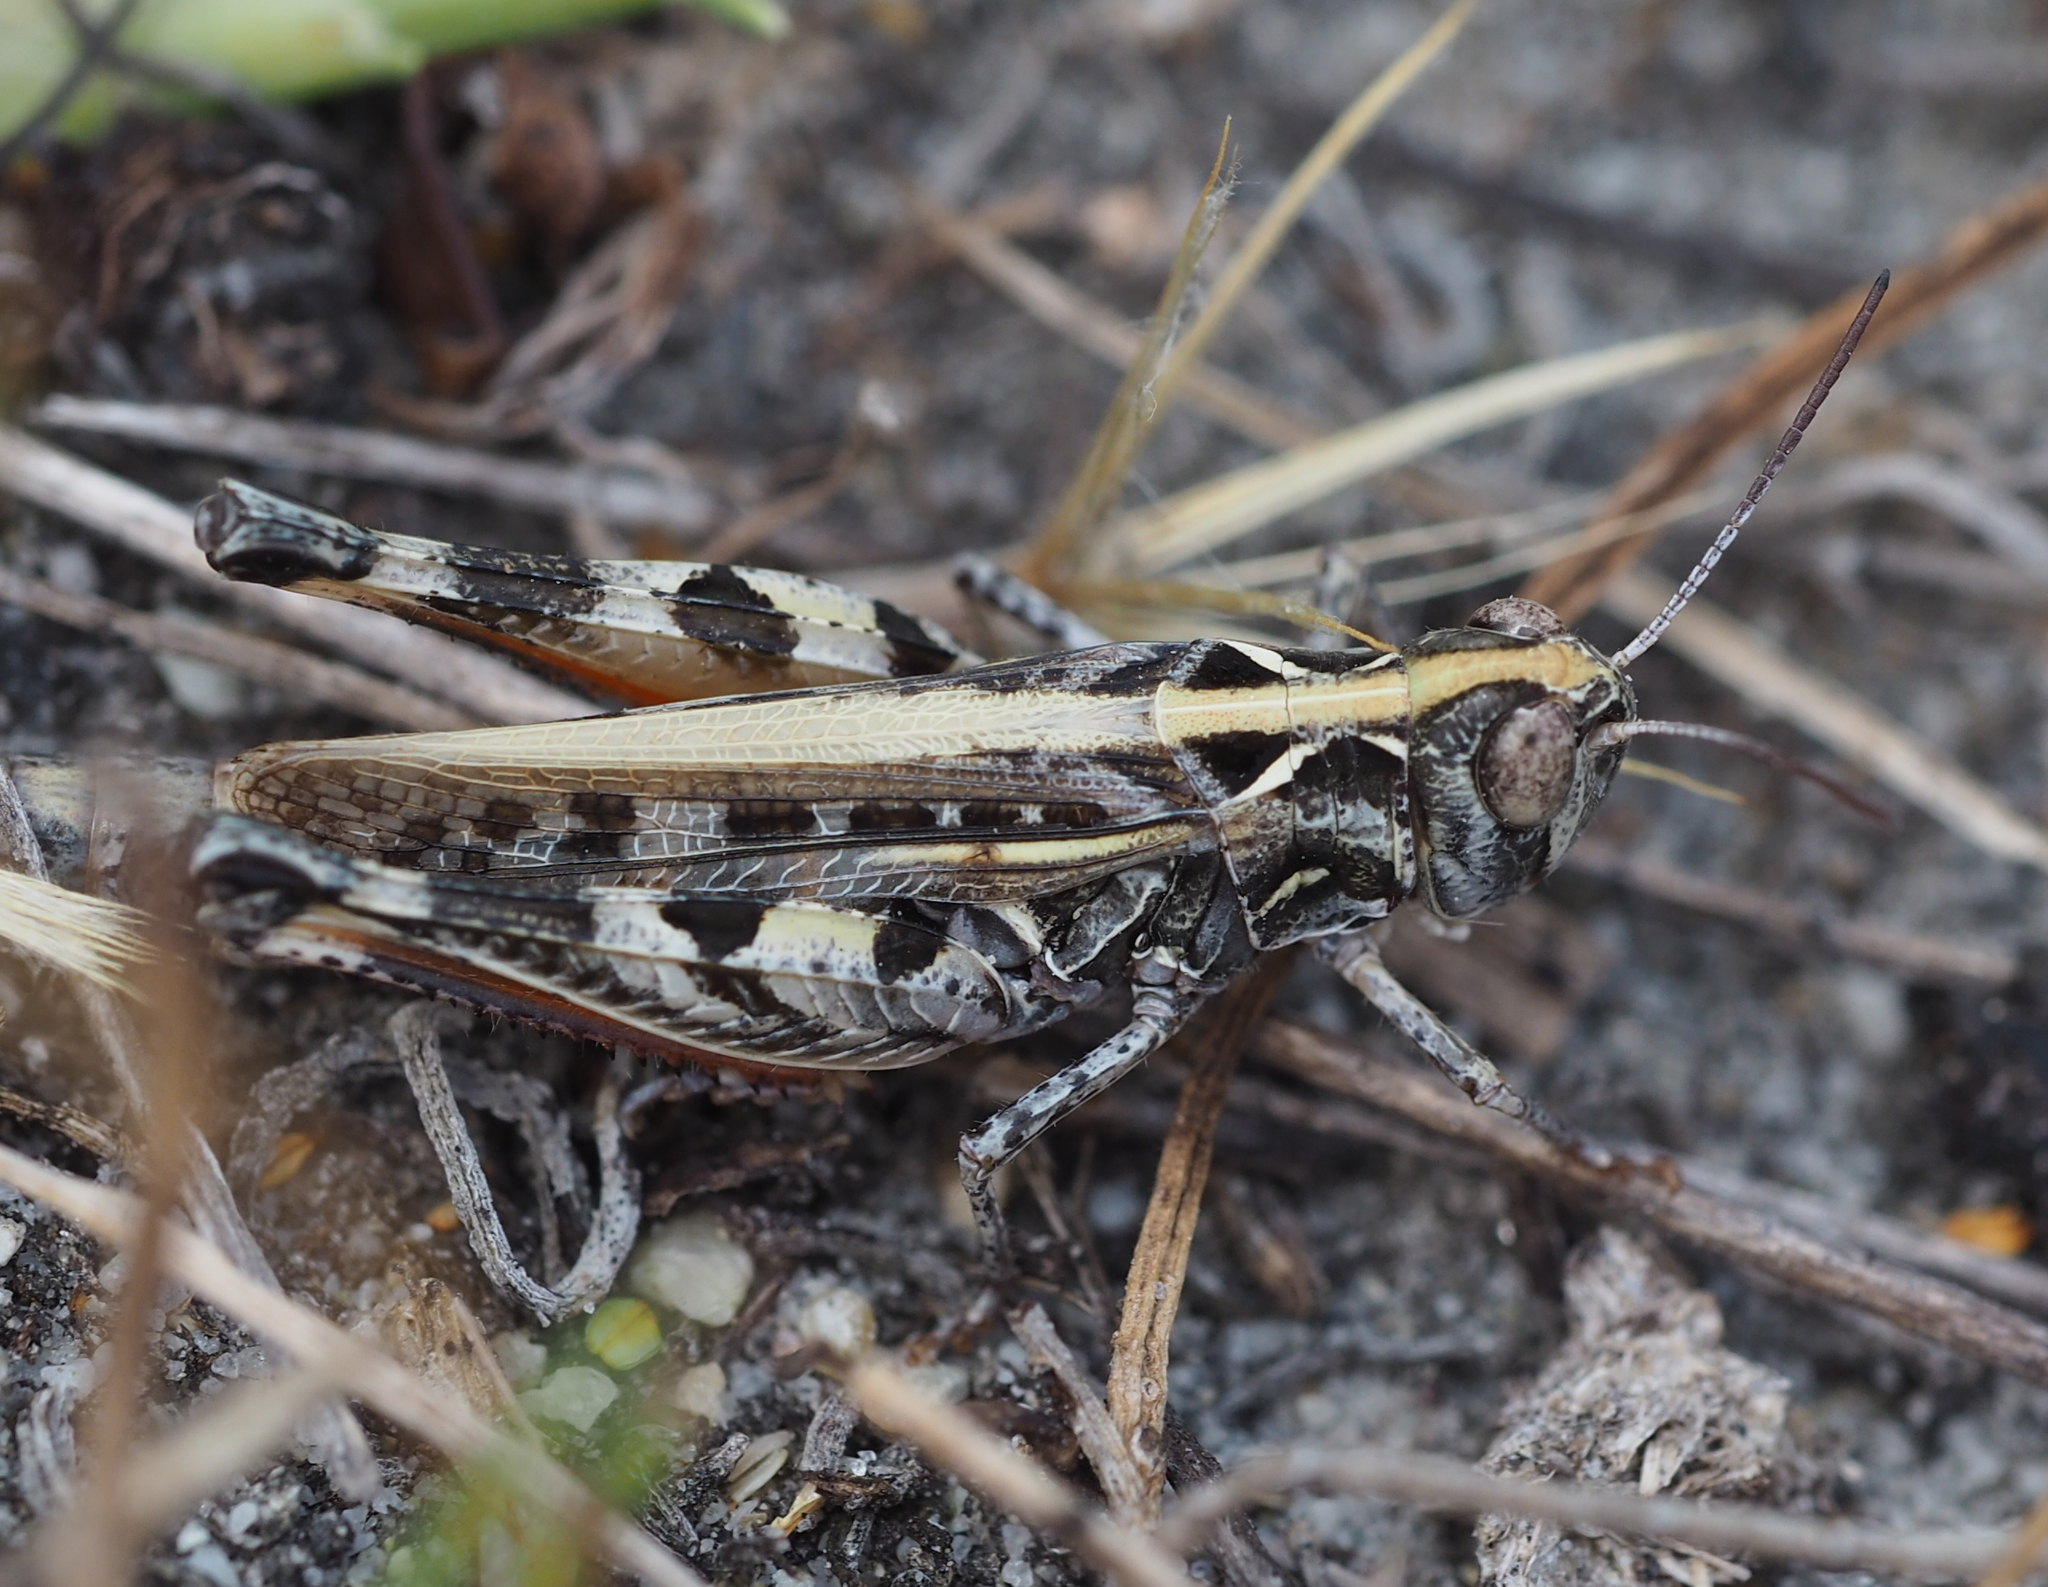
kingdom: Animalia
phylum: Arthropoda
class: Insecta
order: Orthoptera
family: Acrididae
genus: Dociostaurus
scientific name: Dociostaurus brevicollis
